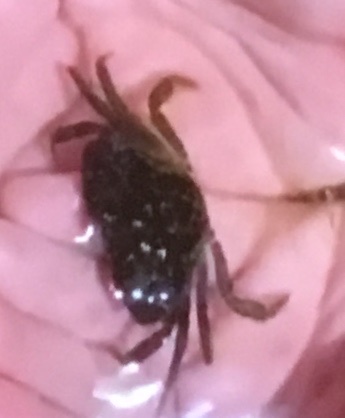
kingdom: Animalia
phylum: Arthropoda
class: Malacostraca
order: Decapoda
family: Carcinidae
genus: Carcinus
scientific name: Carcinus maenas
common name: European green crab
